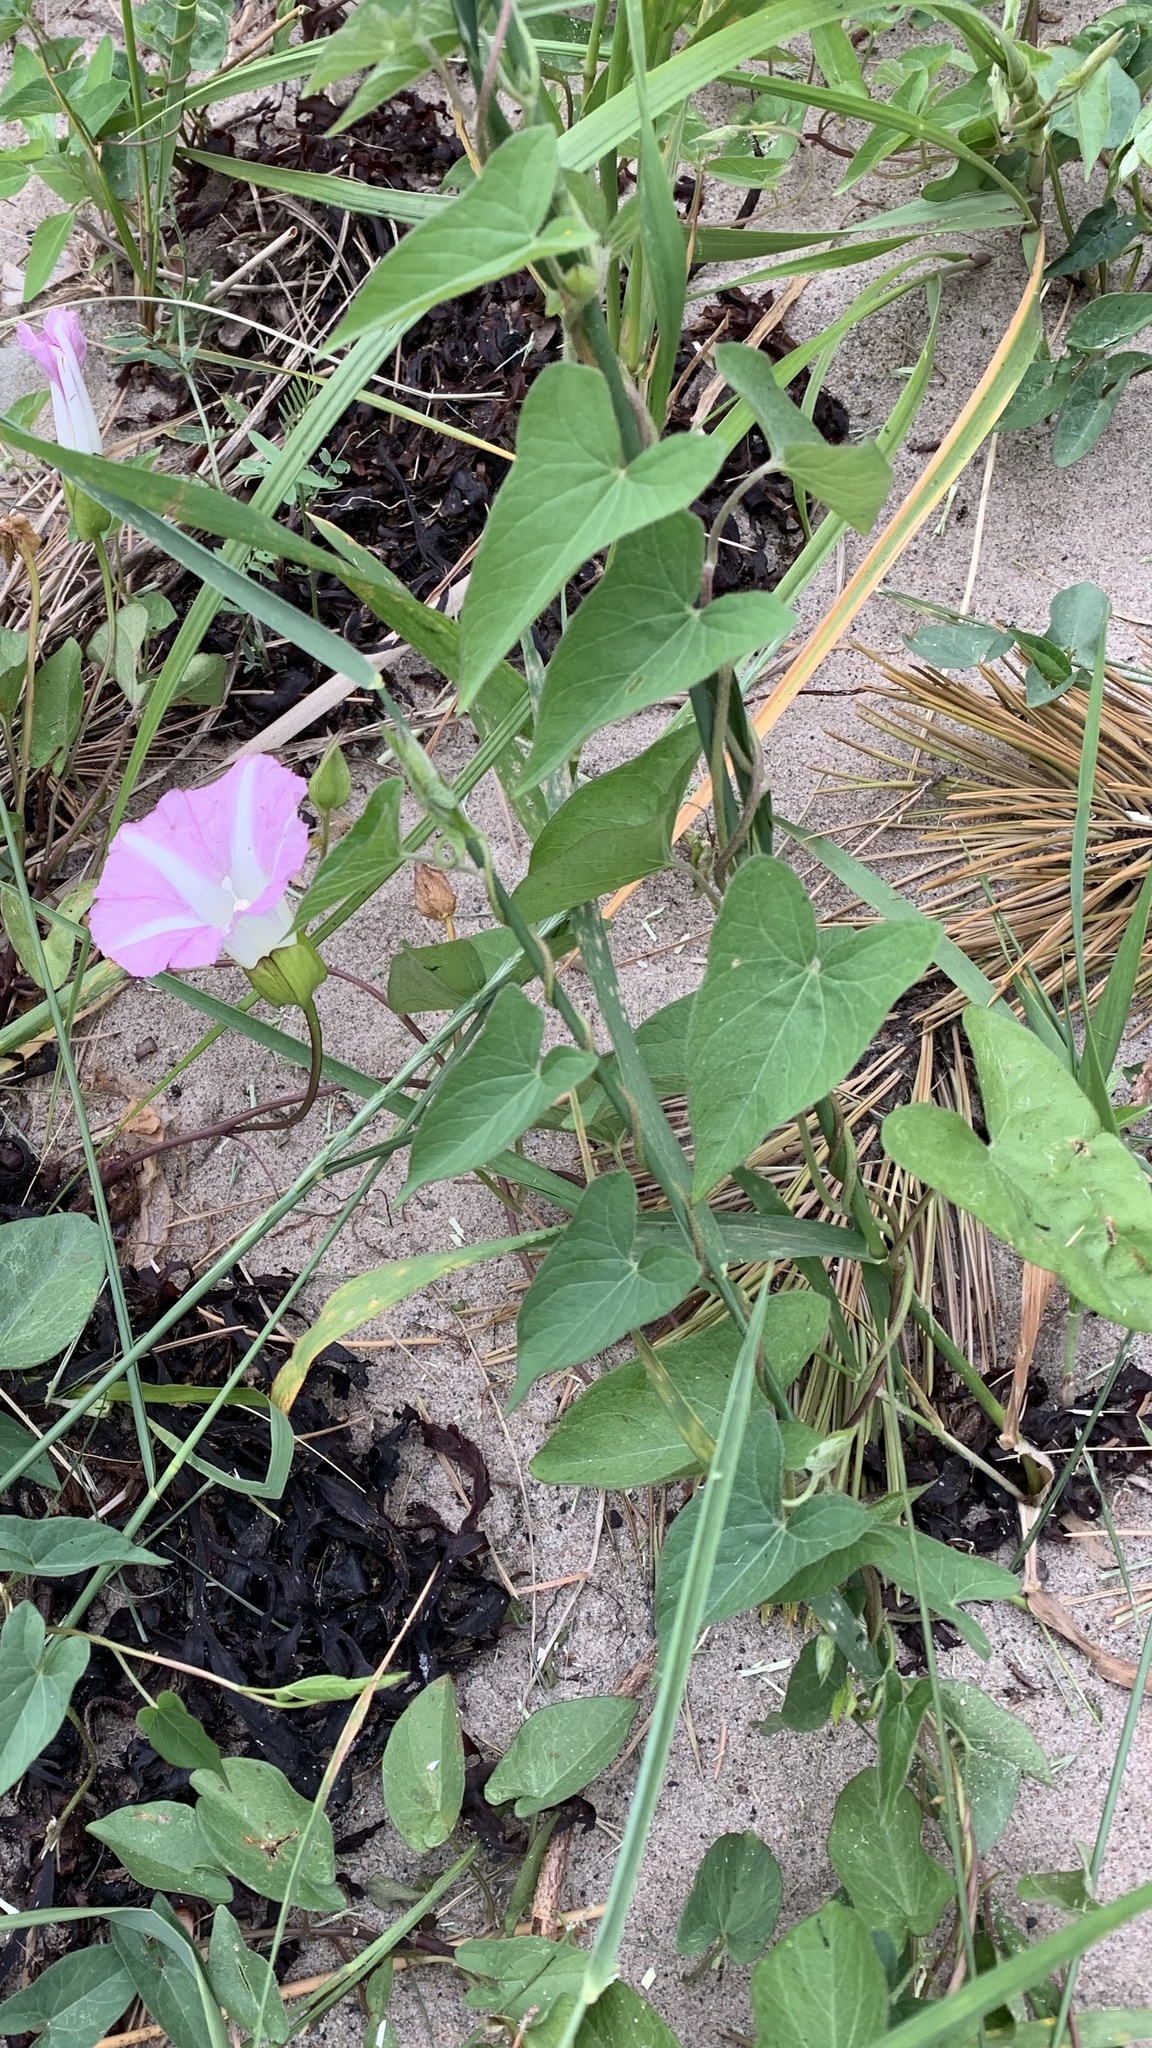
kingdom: Plantae
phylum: Tracheophyta
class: Magnoliopsida
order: Solanales
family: Convolvulaceae
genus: Calystegia
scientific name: Calystegia sepium
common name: Hedge bindweed
